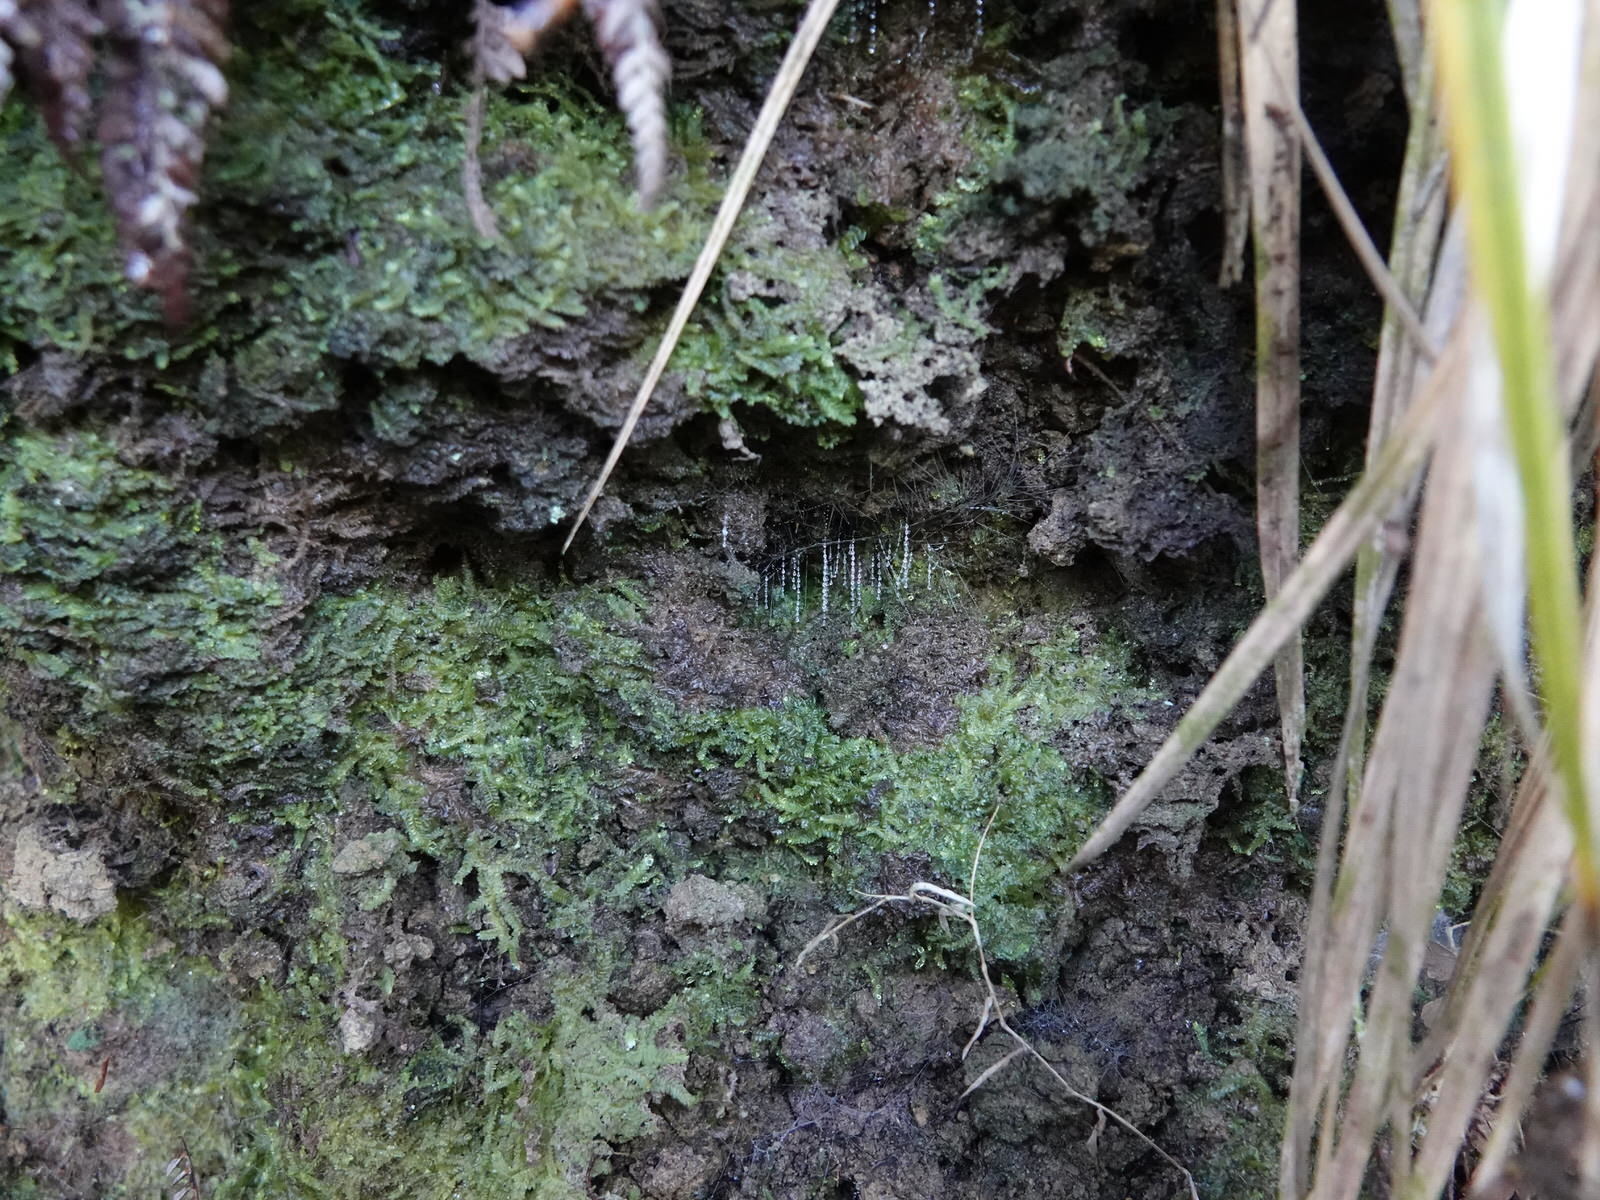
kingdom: Animalia
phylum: Arthropoda
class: Insecta
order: Diptera
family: Keroplatidae
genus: Arachnocampa
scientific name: Arachnocampa luminosa
